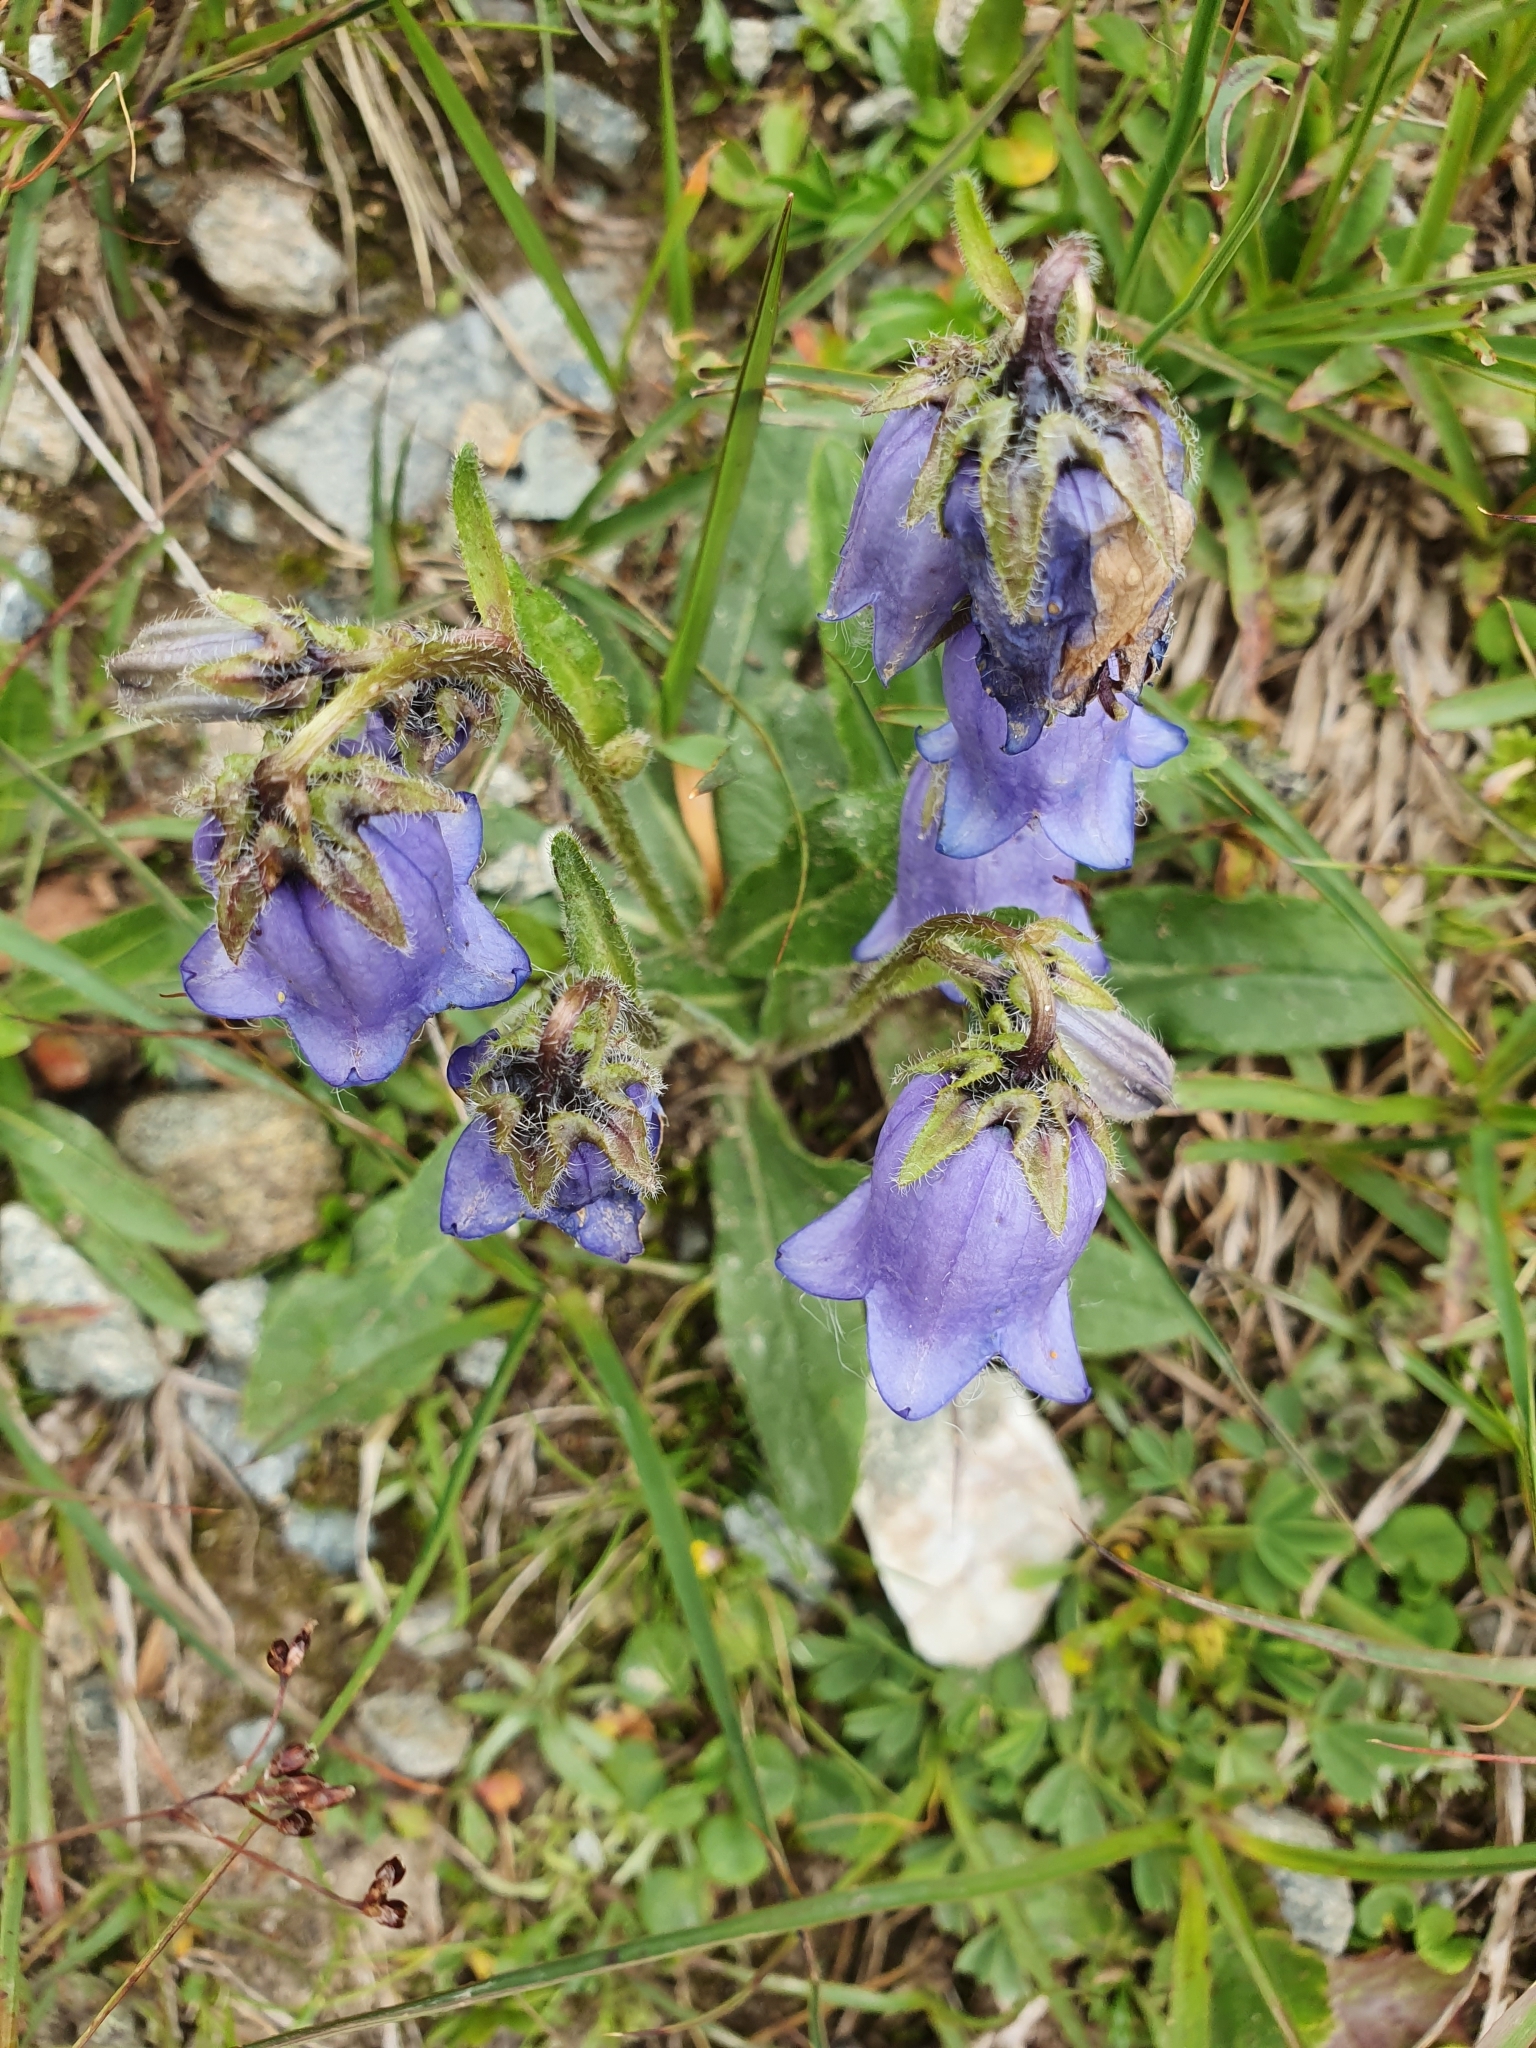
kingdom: Plantae
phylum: Tracheophyta
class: Magnoliopsida
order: Asterales
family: Campanulaceae
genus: Campanula
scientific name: Campanula barbata
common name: Bearded bellflower
